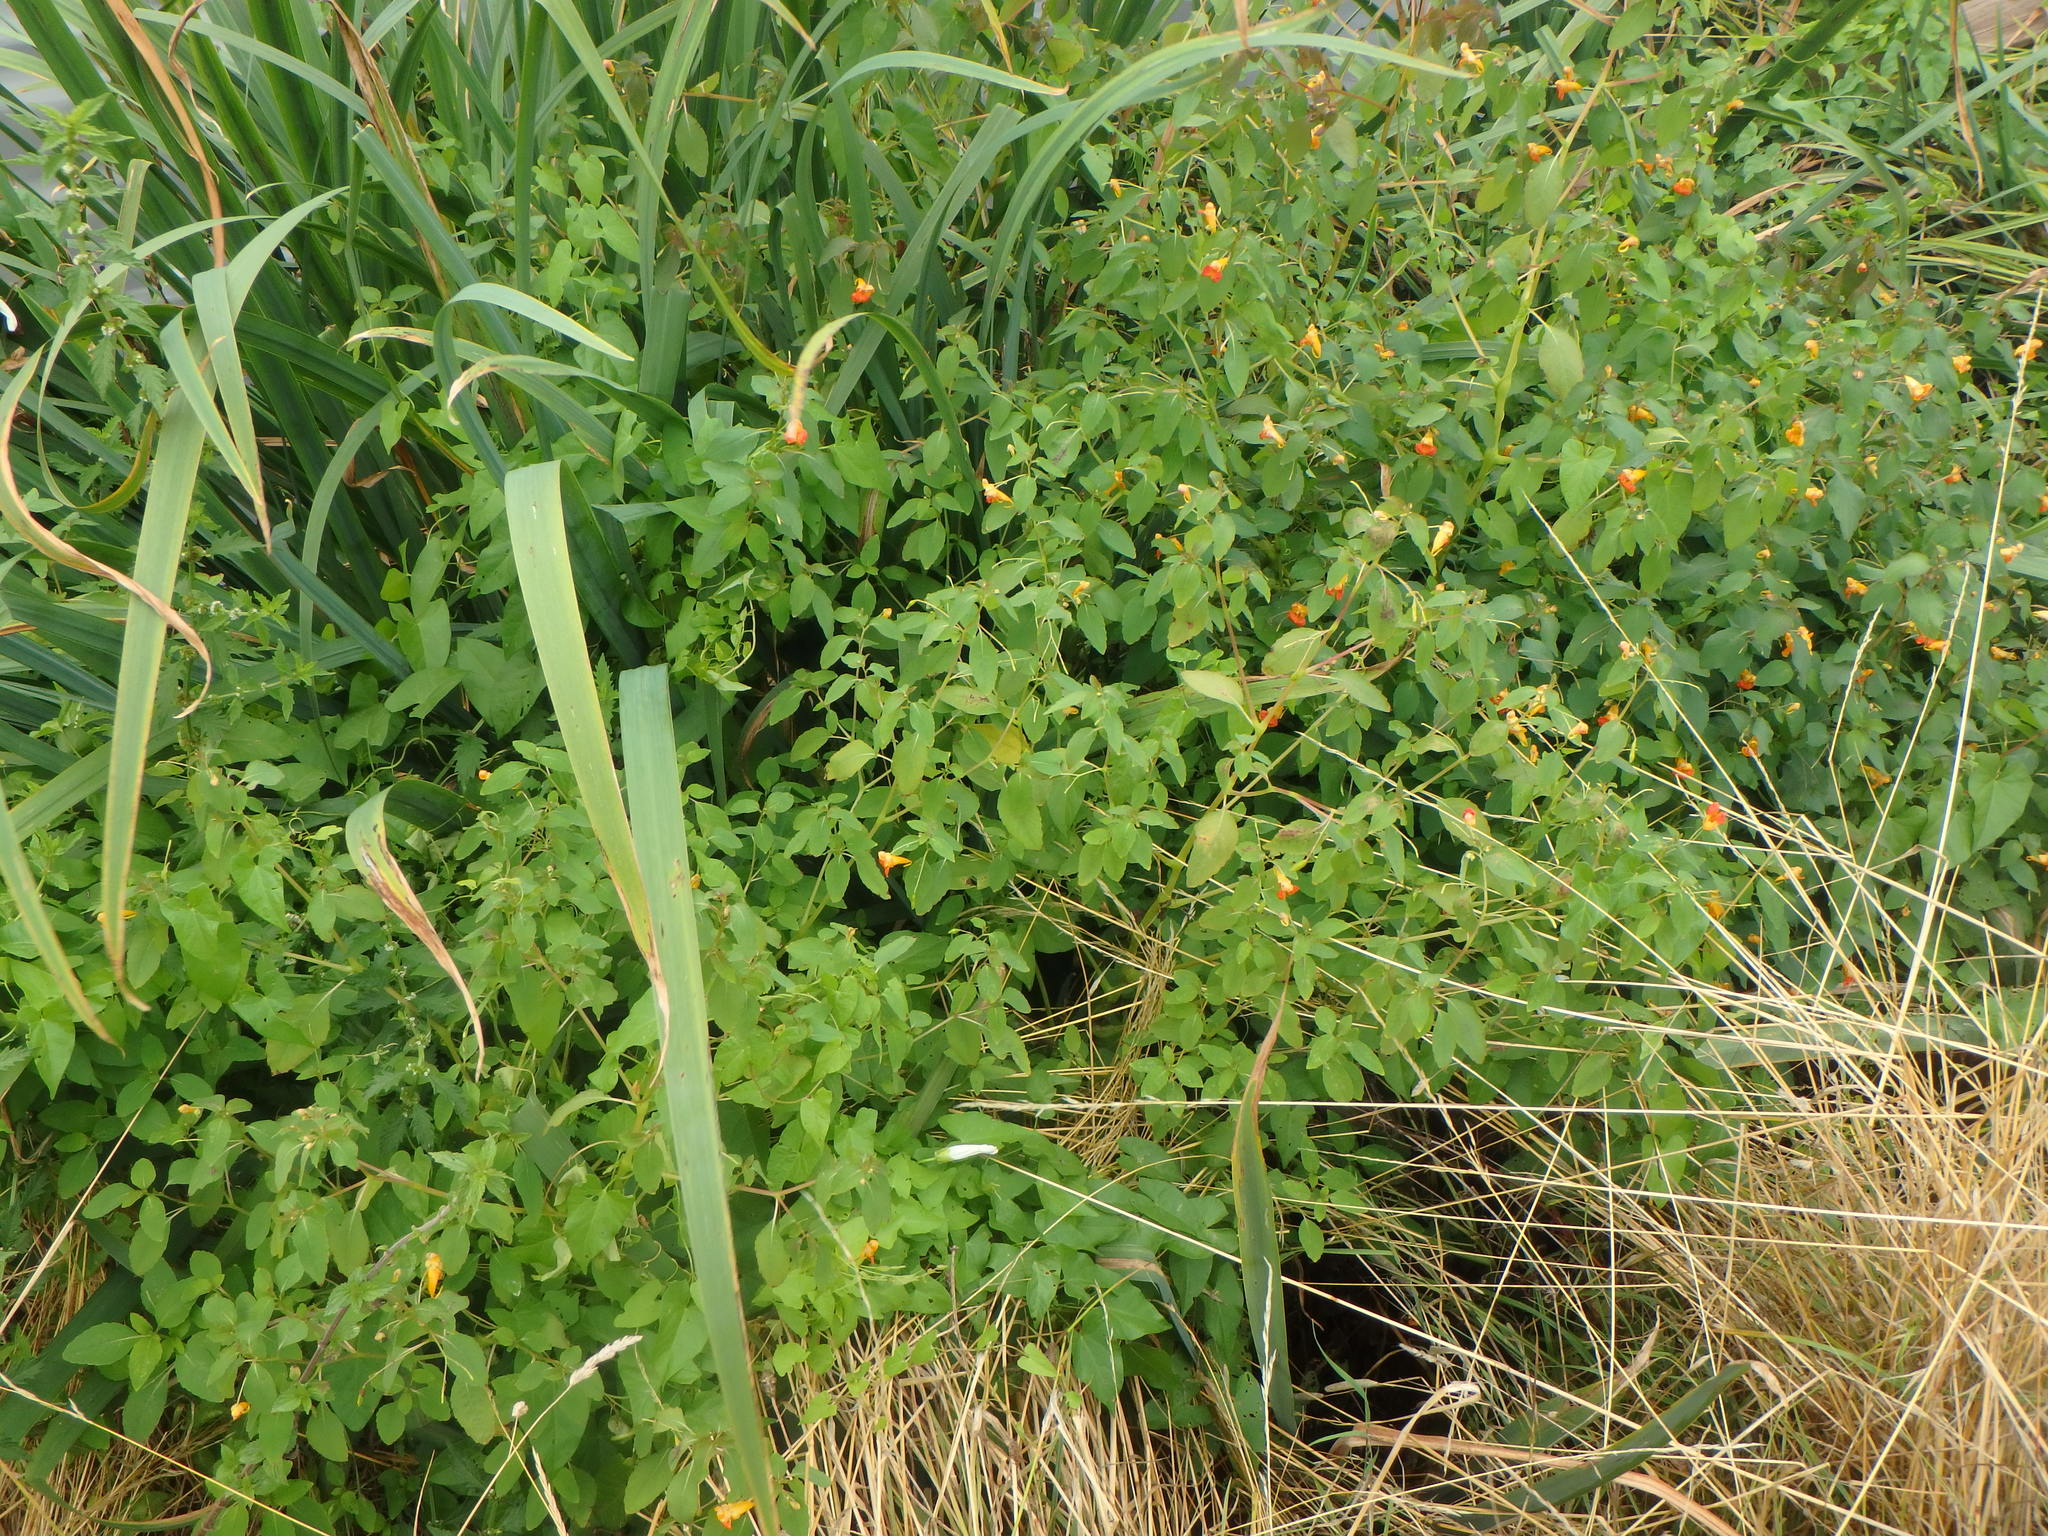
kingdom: Plantae
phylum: Tracheophyta
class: Magnoliopsida
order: Ericales
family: Balsaminaceae
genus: Impatiens
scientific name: Impatiens capensis
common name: Orange balsam
